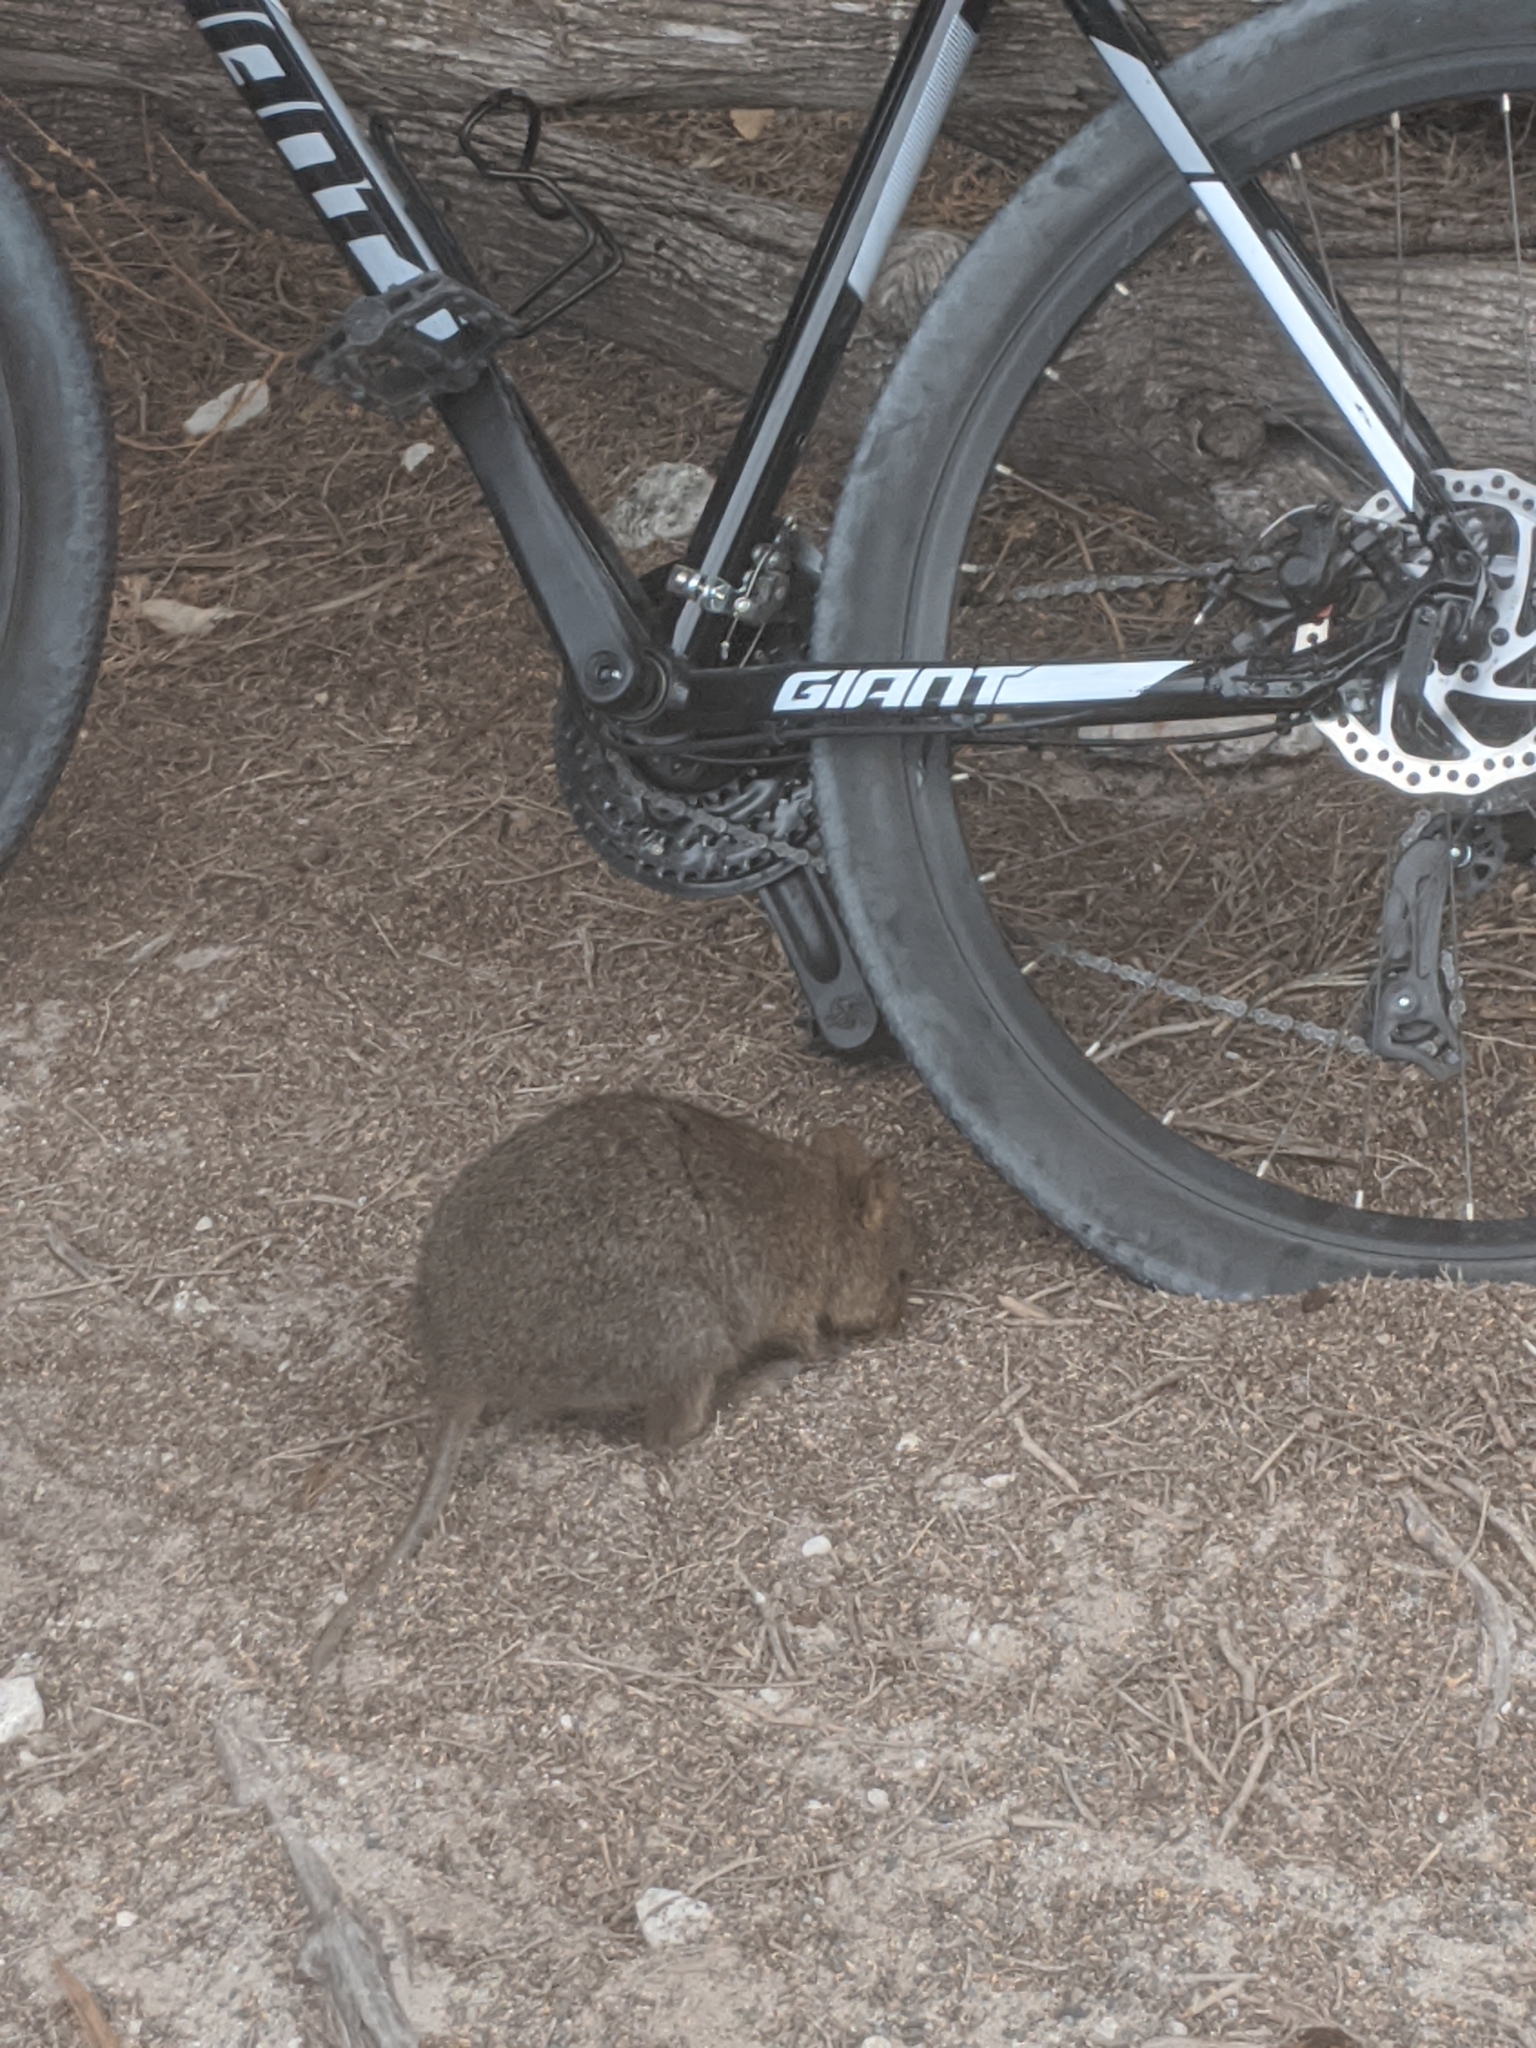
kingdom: Animalia
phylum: Chordata
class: Mammalia
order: Diprotodontia
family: Macropodidae
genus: Setonix
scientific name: Setonix brachyurus
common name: Quokka
